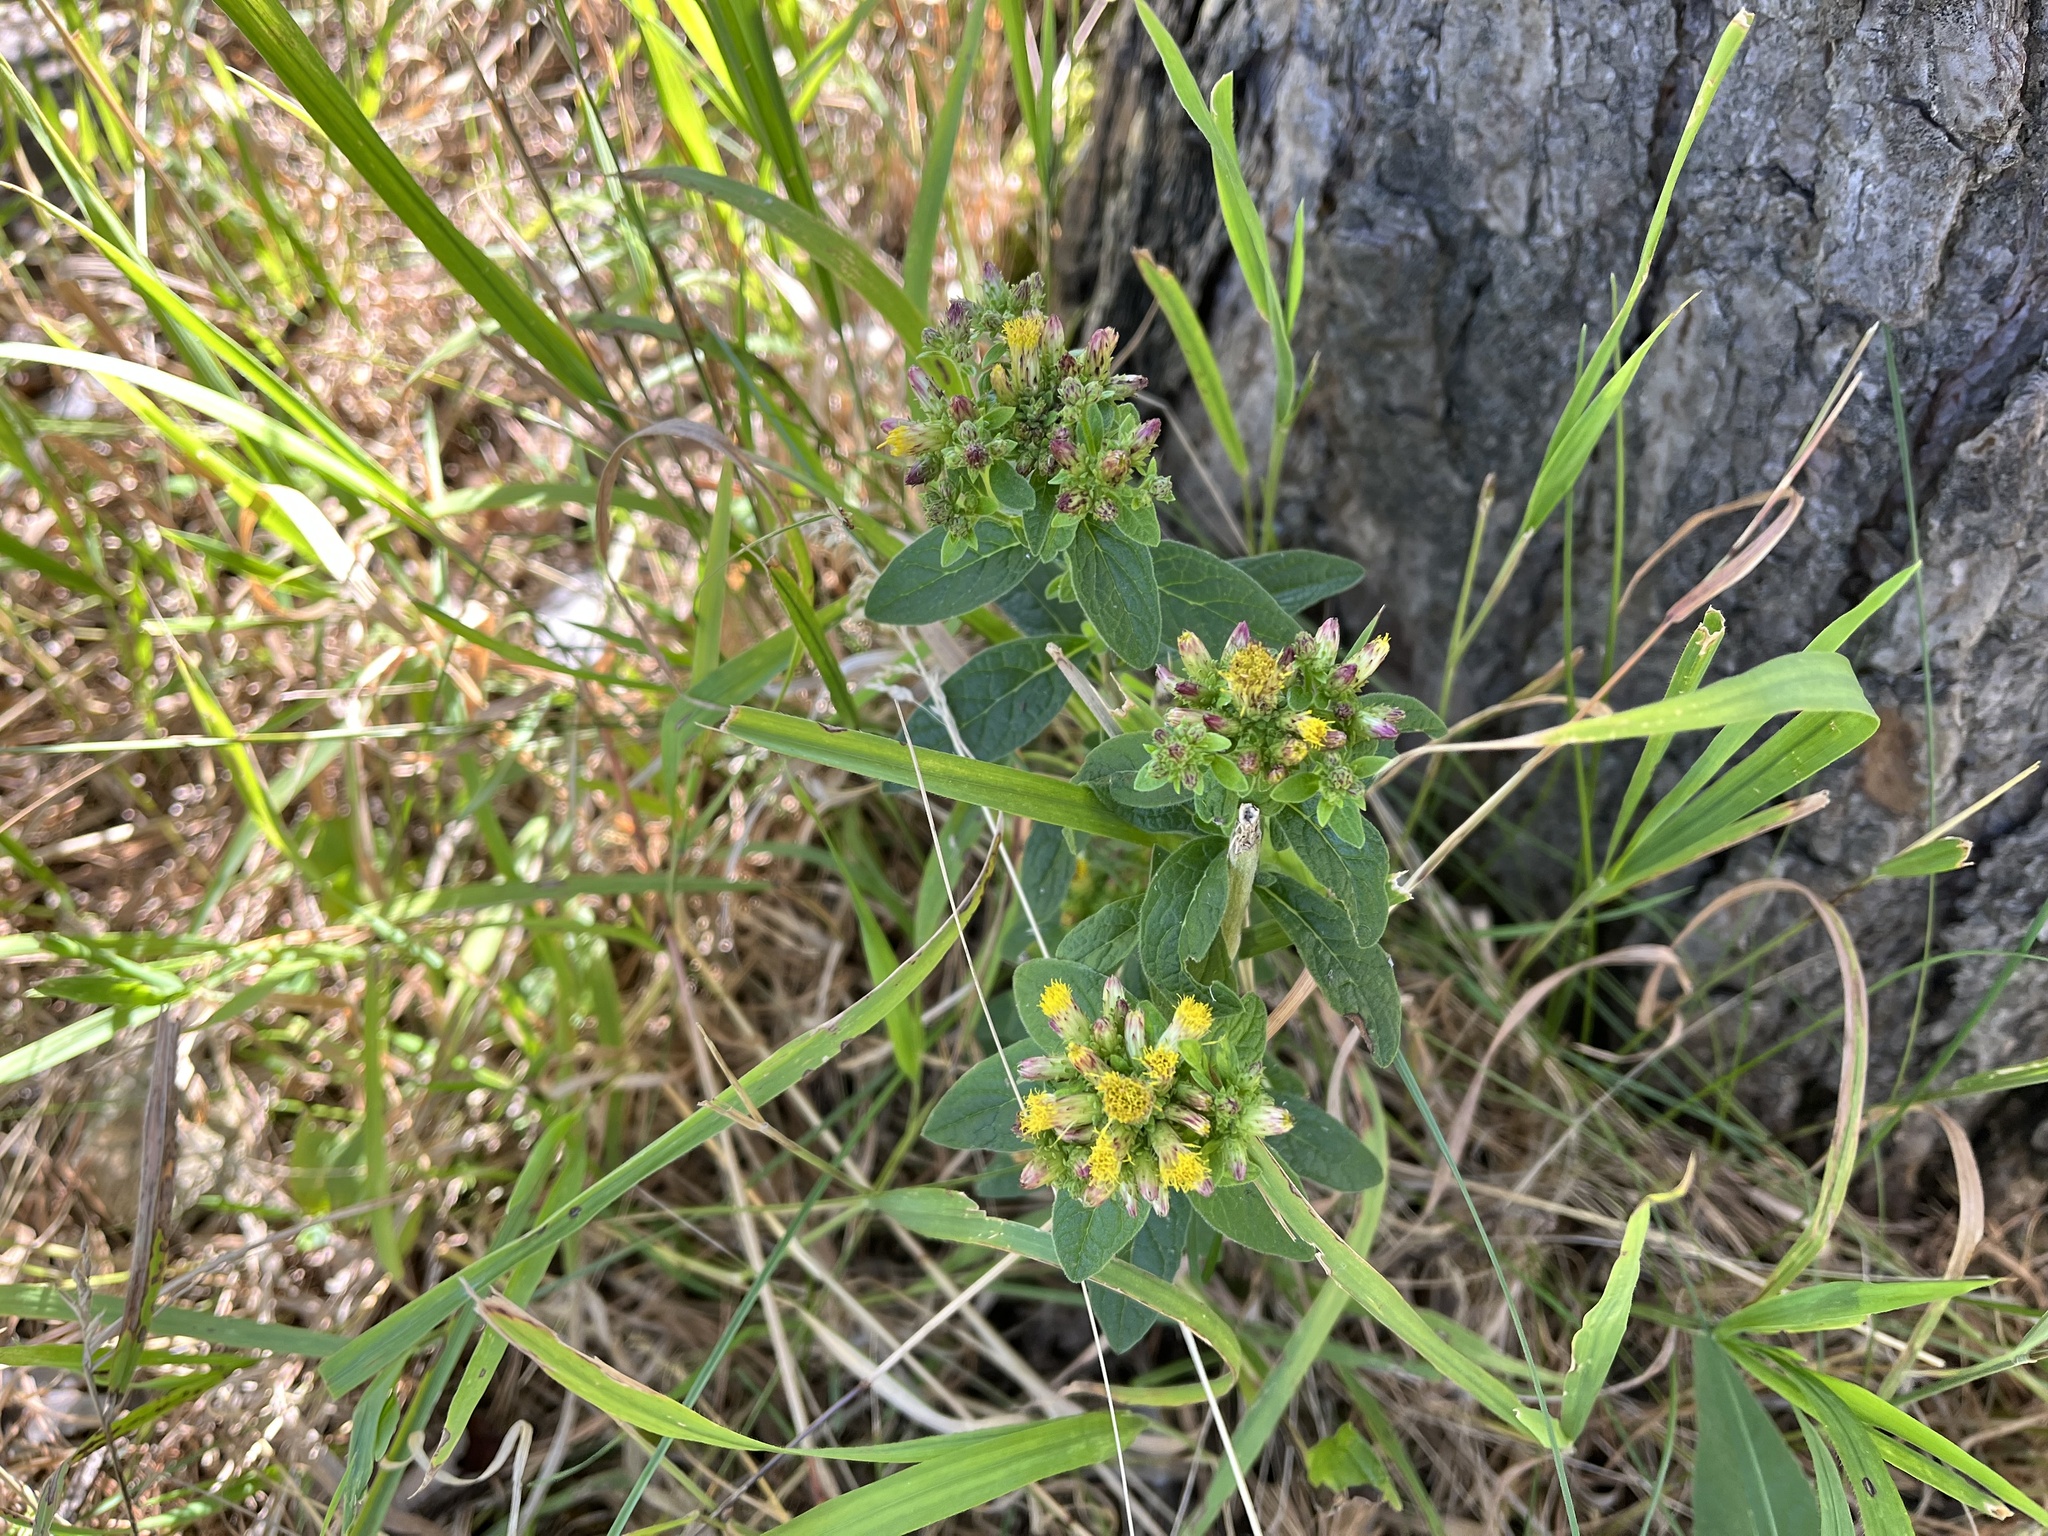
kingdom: Plantae
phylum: Tracheophyta
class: Magnoliopsida
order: Asterales
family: Asteraceae
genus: Pentanema
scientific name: Pentanema squarrosum
